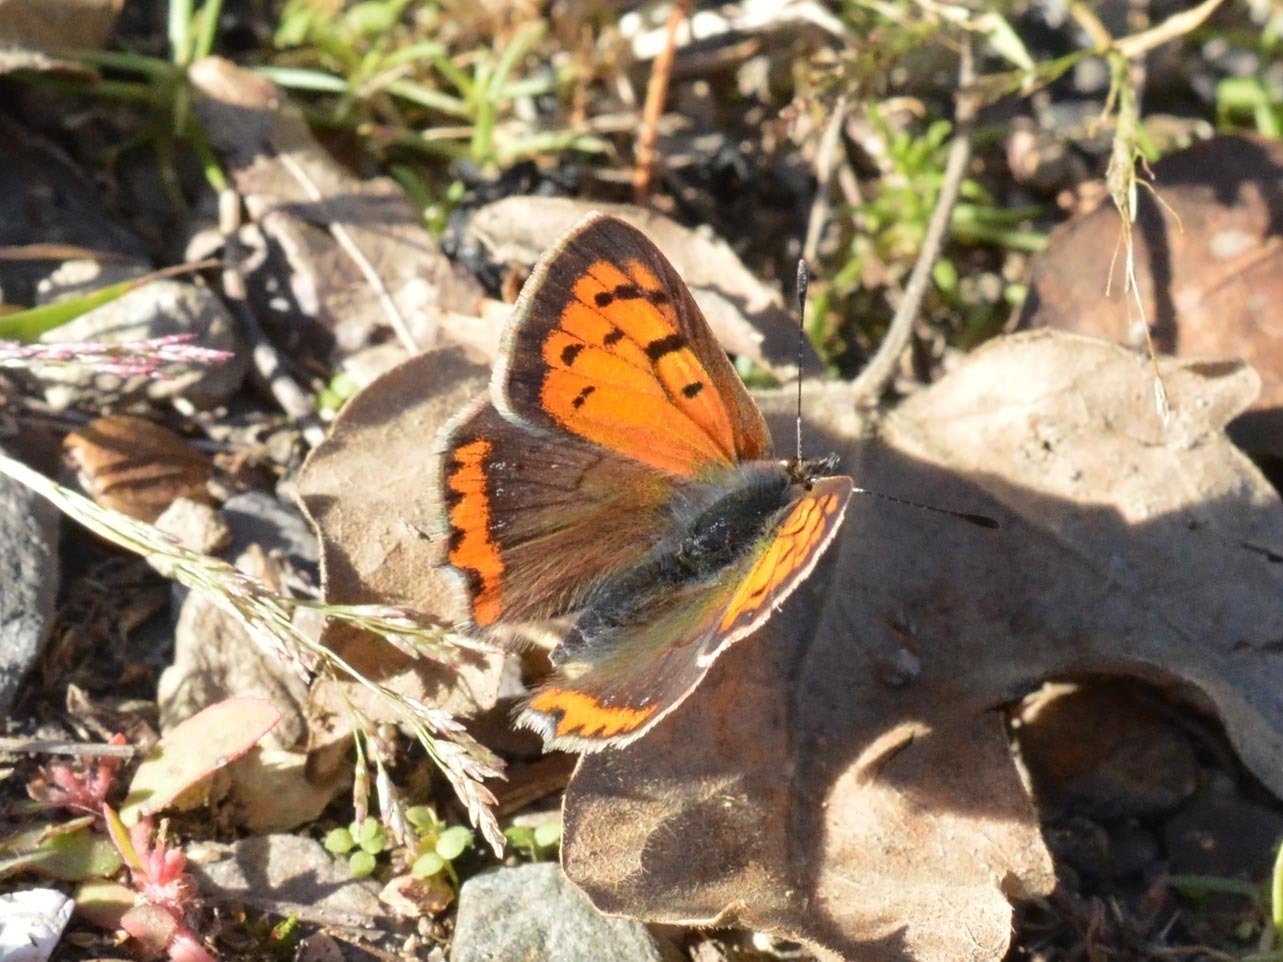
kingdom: Animalia
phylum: Arthropoda
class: Insecta
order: Lepidoptera
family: Lycaenidae
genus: Lycaena
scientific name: Lycaena phlaeas
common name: Small copper
